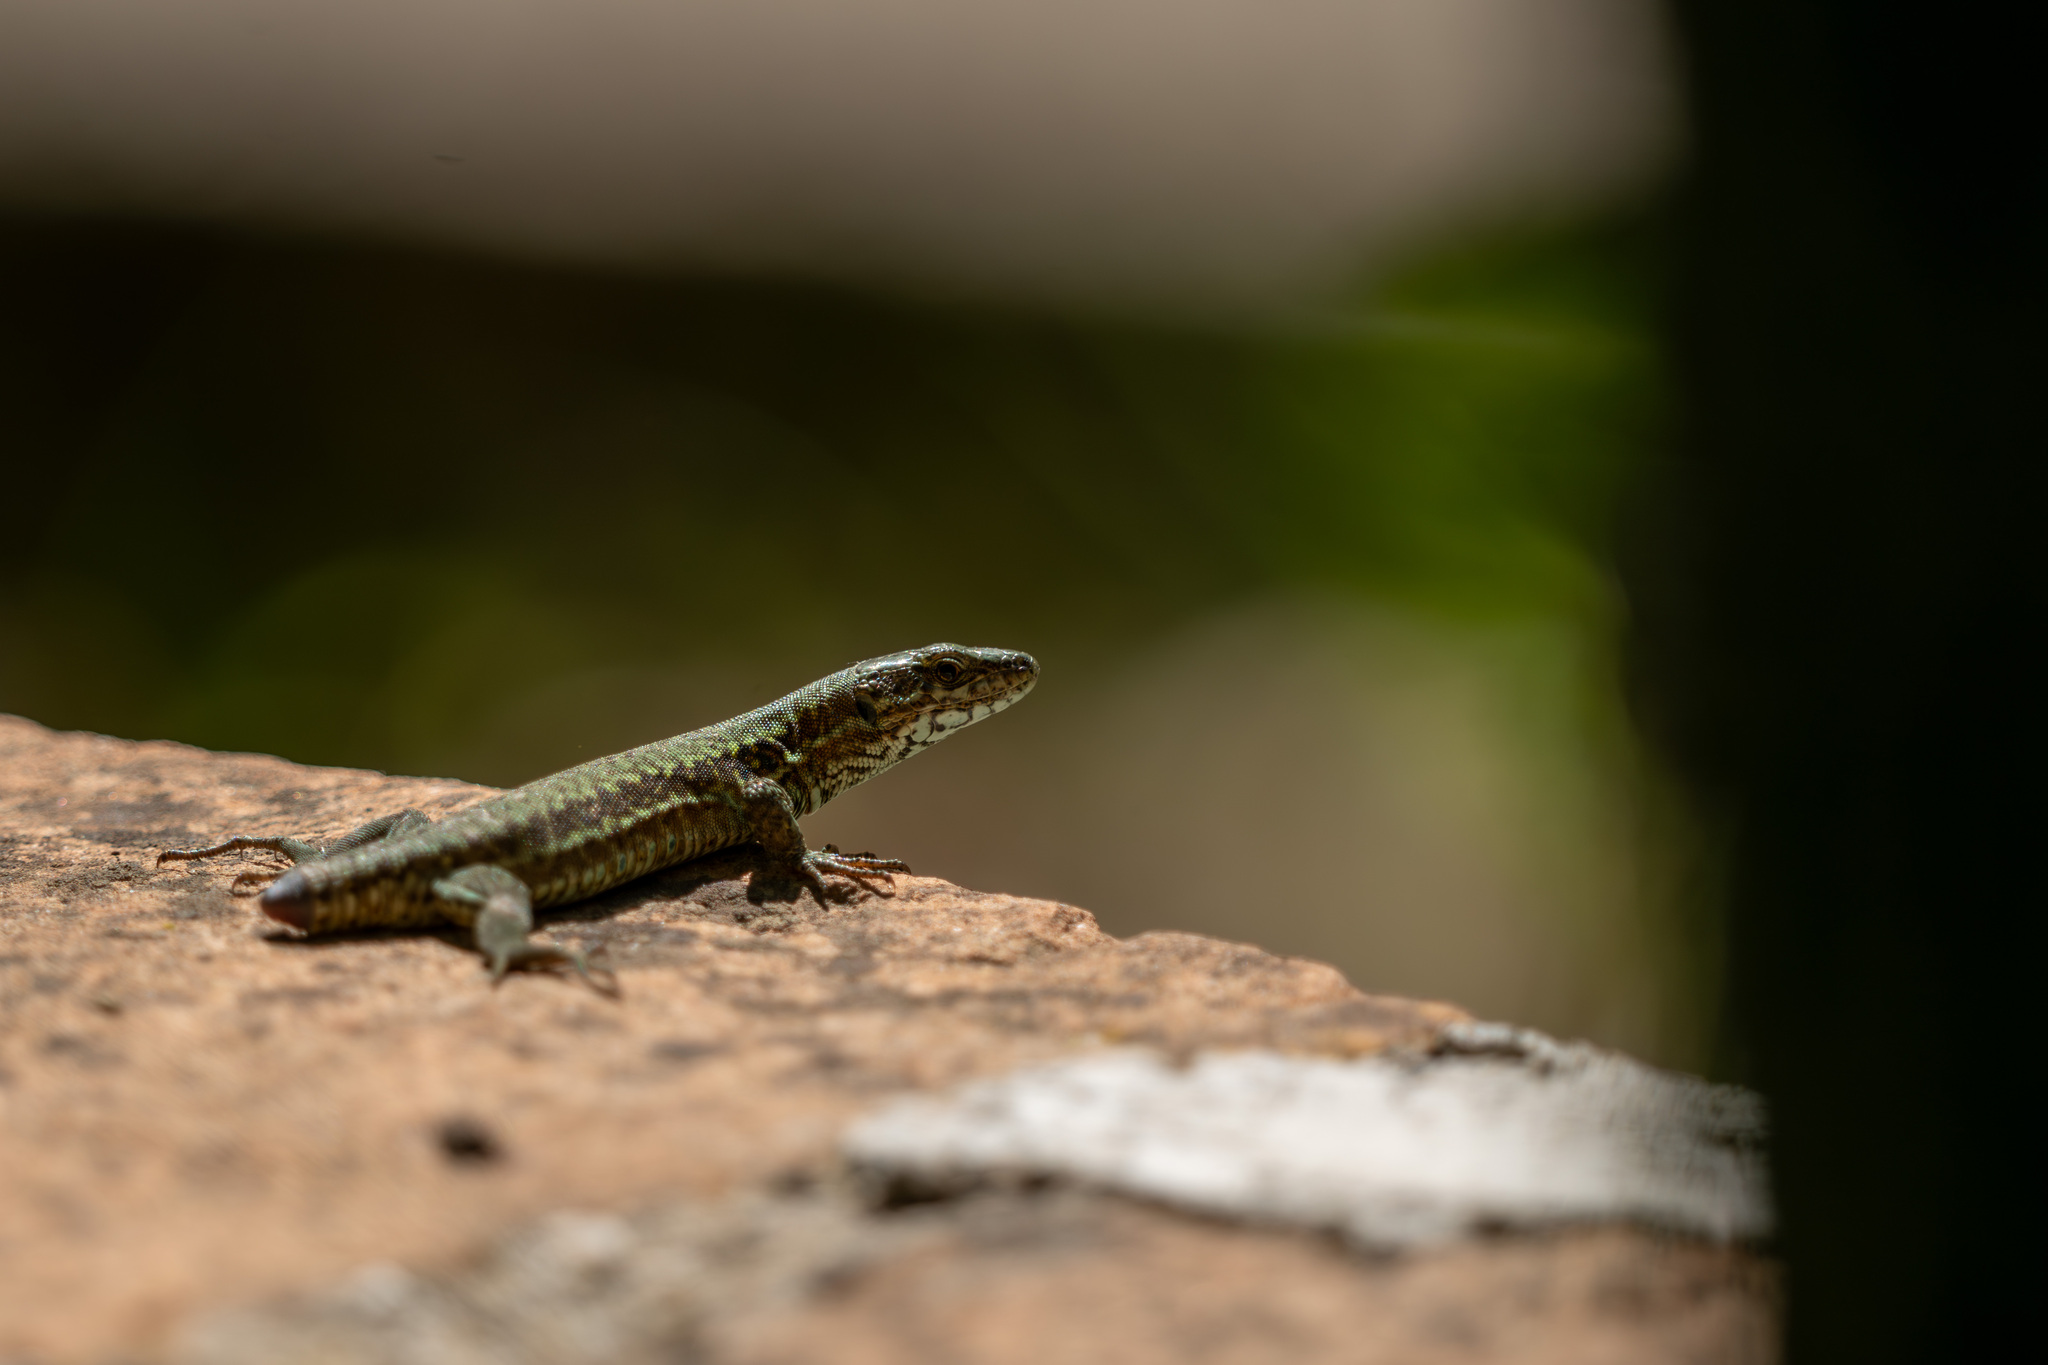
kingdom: Animalia
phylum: Chordata
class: Squamata
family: Lacertidae
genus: Podarcis
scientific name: Podarcis muralis
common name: Common wall lizard
